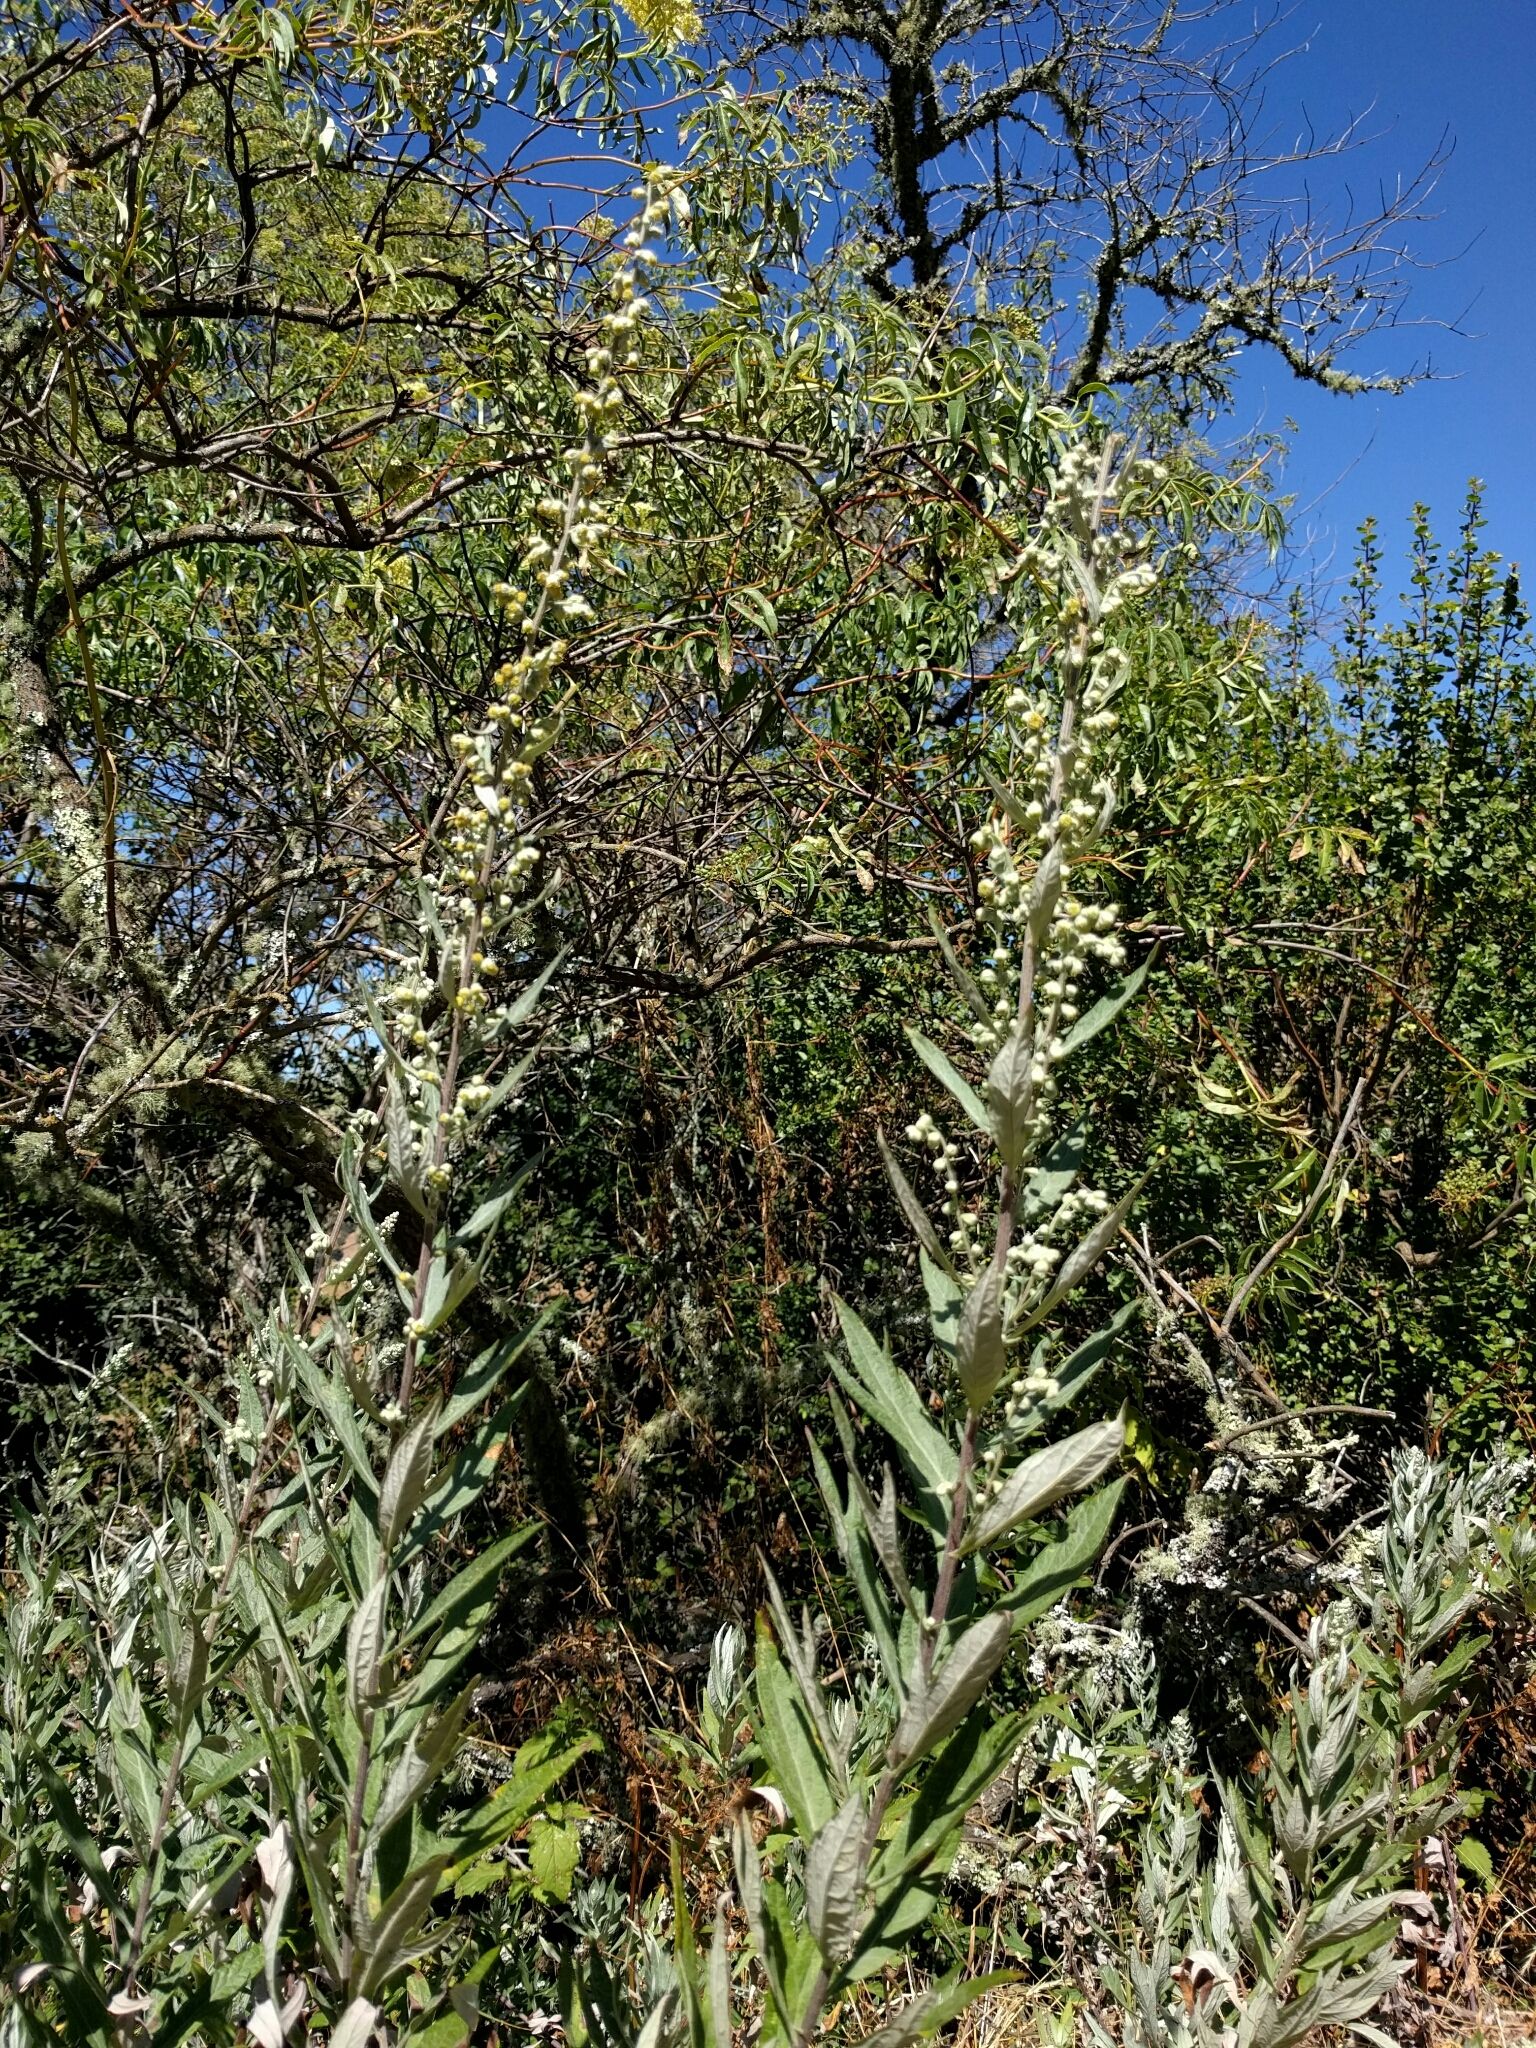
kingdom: Plantae
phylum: Tracheophyta
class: Magnoliopsida
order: Asterales
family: Asteraceae
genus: Artemisia
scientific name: Artemisia douglasiana
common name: Northwest mugwort
